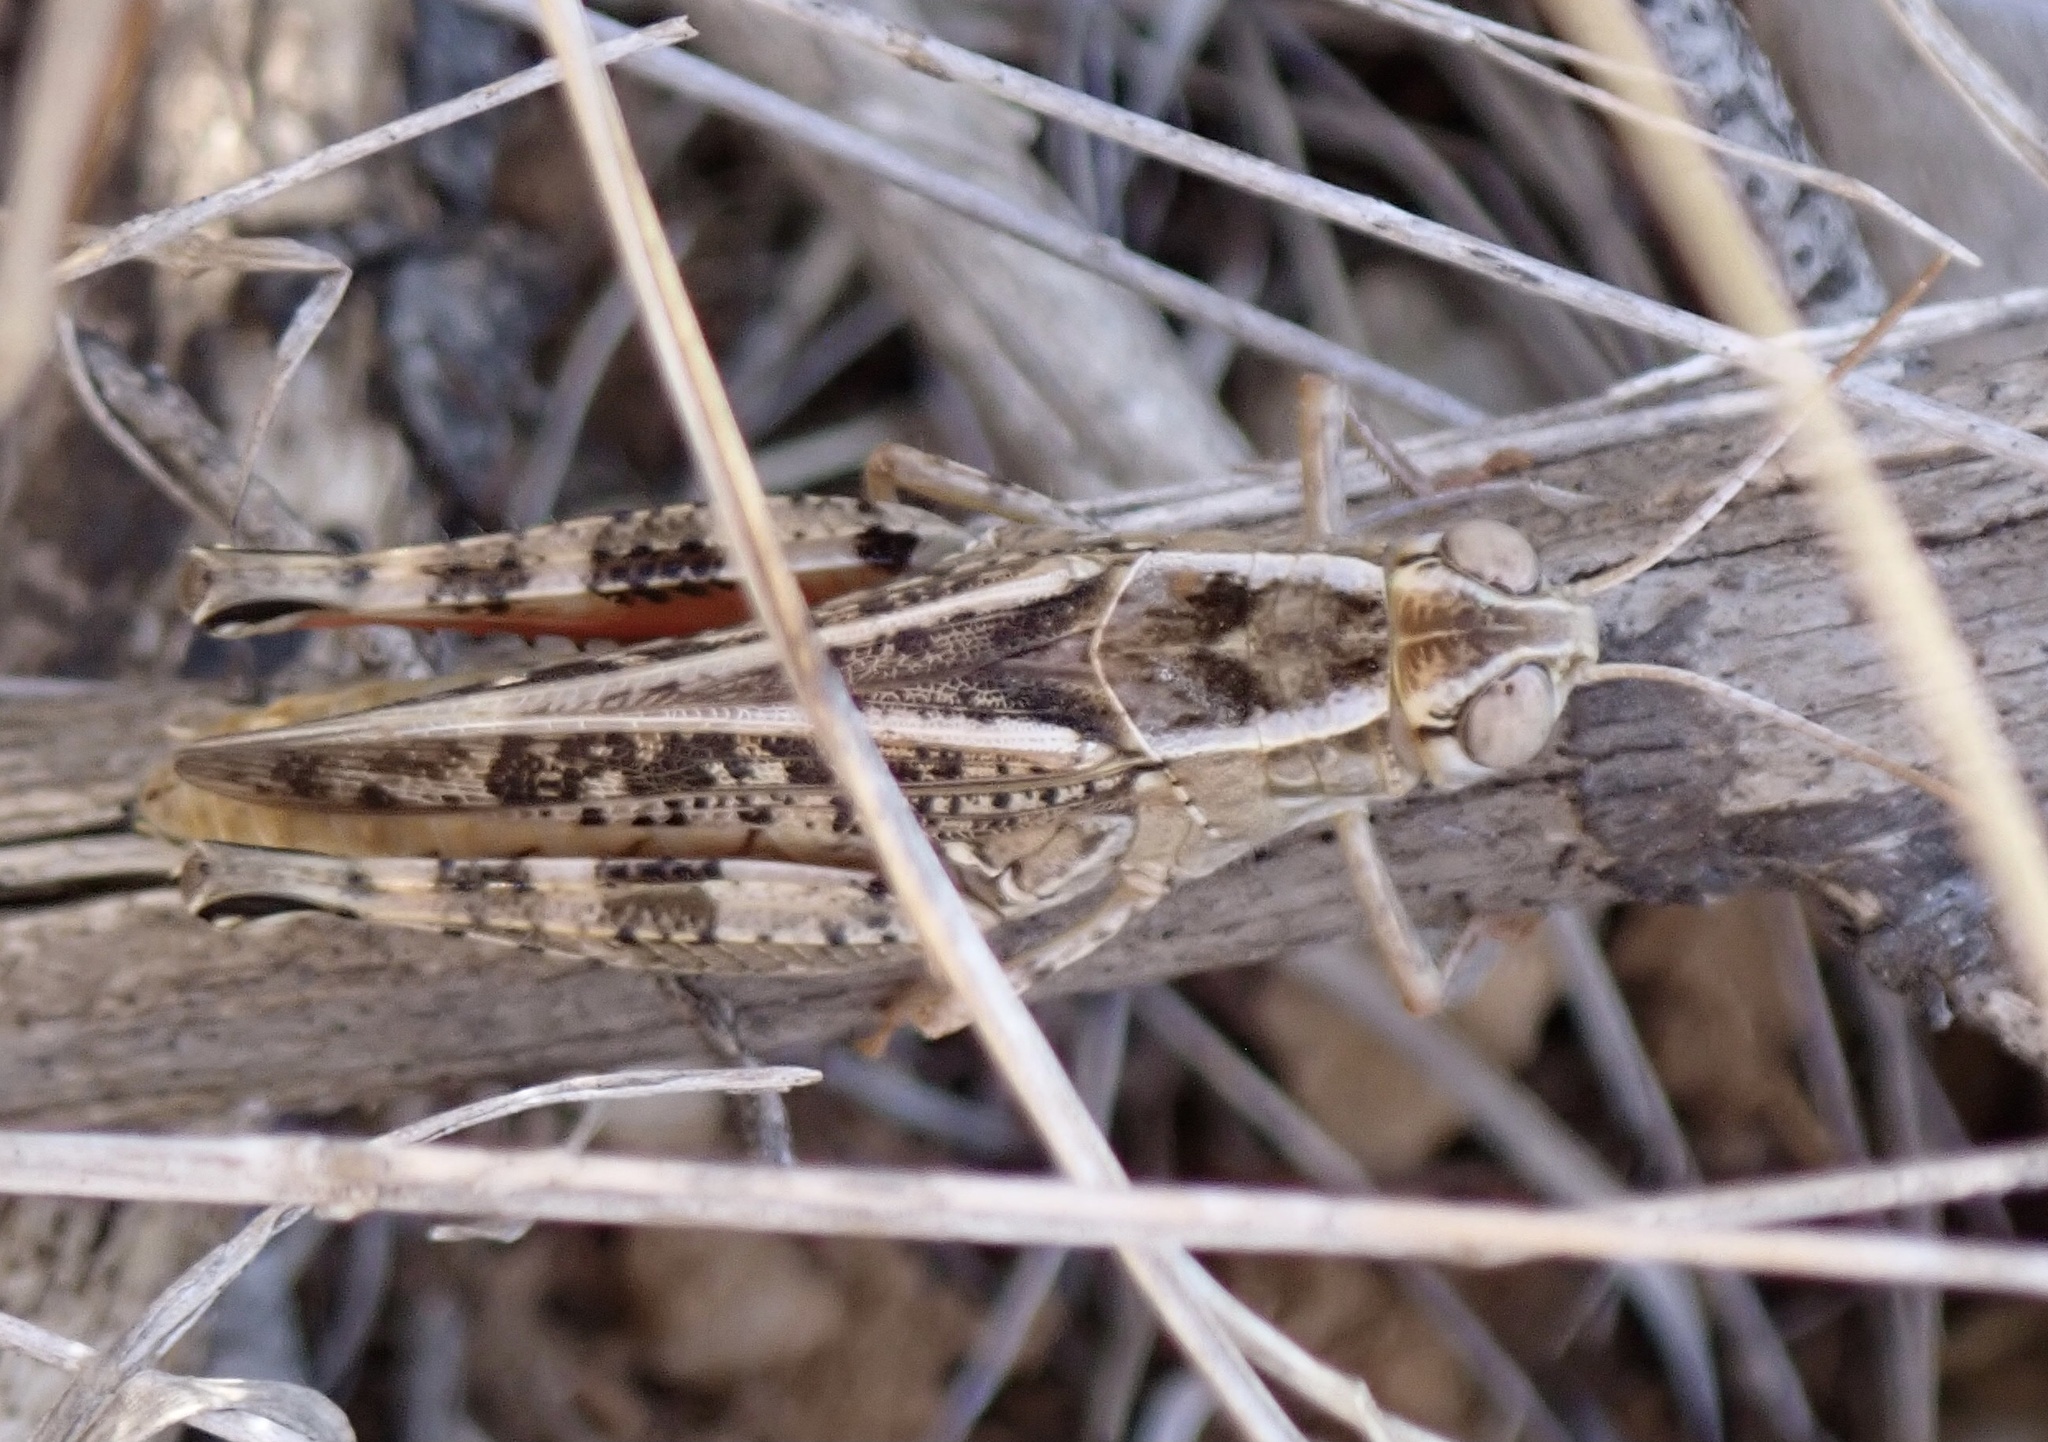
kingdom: Animalia
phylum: Arthropoda
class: Insecta
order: Orthoptera
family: Acrididae
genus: Calliptamus
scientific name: Calliptamus italicus
